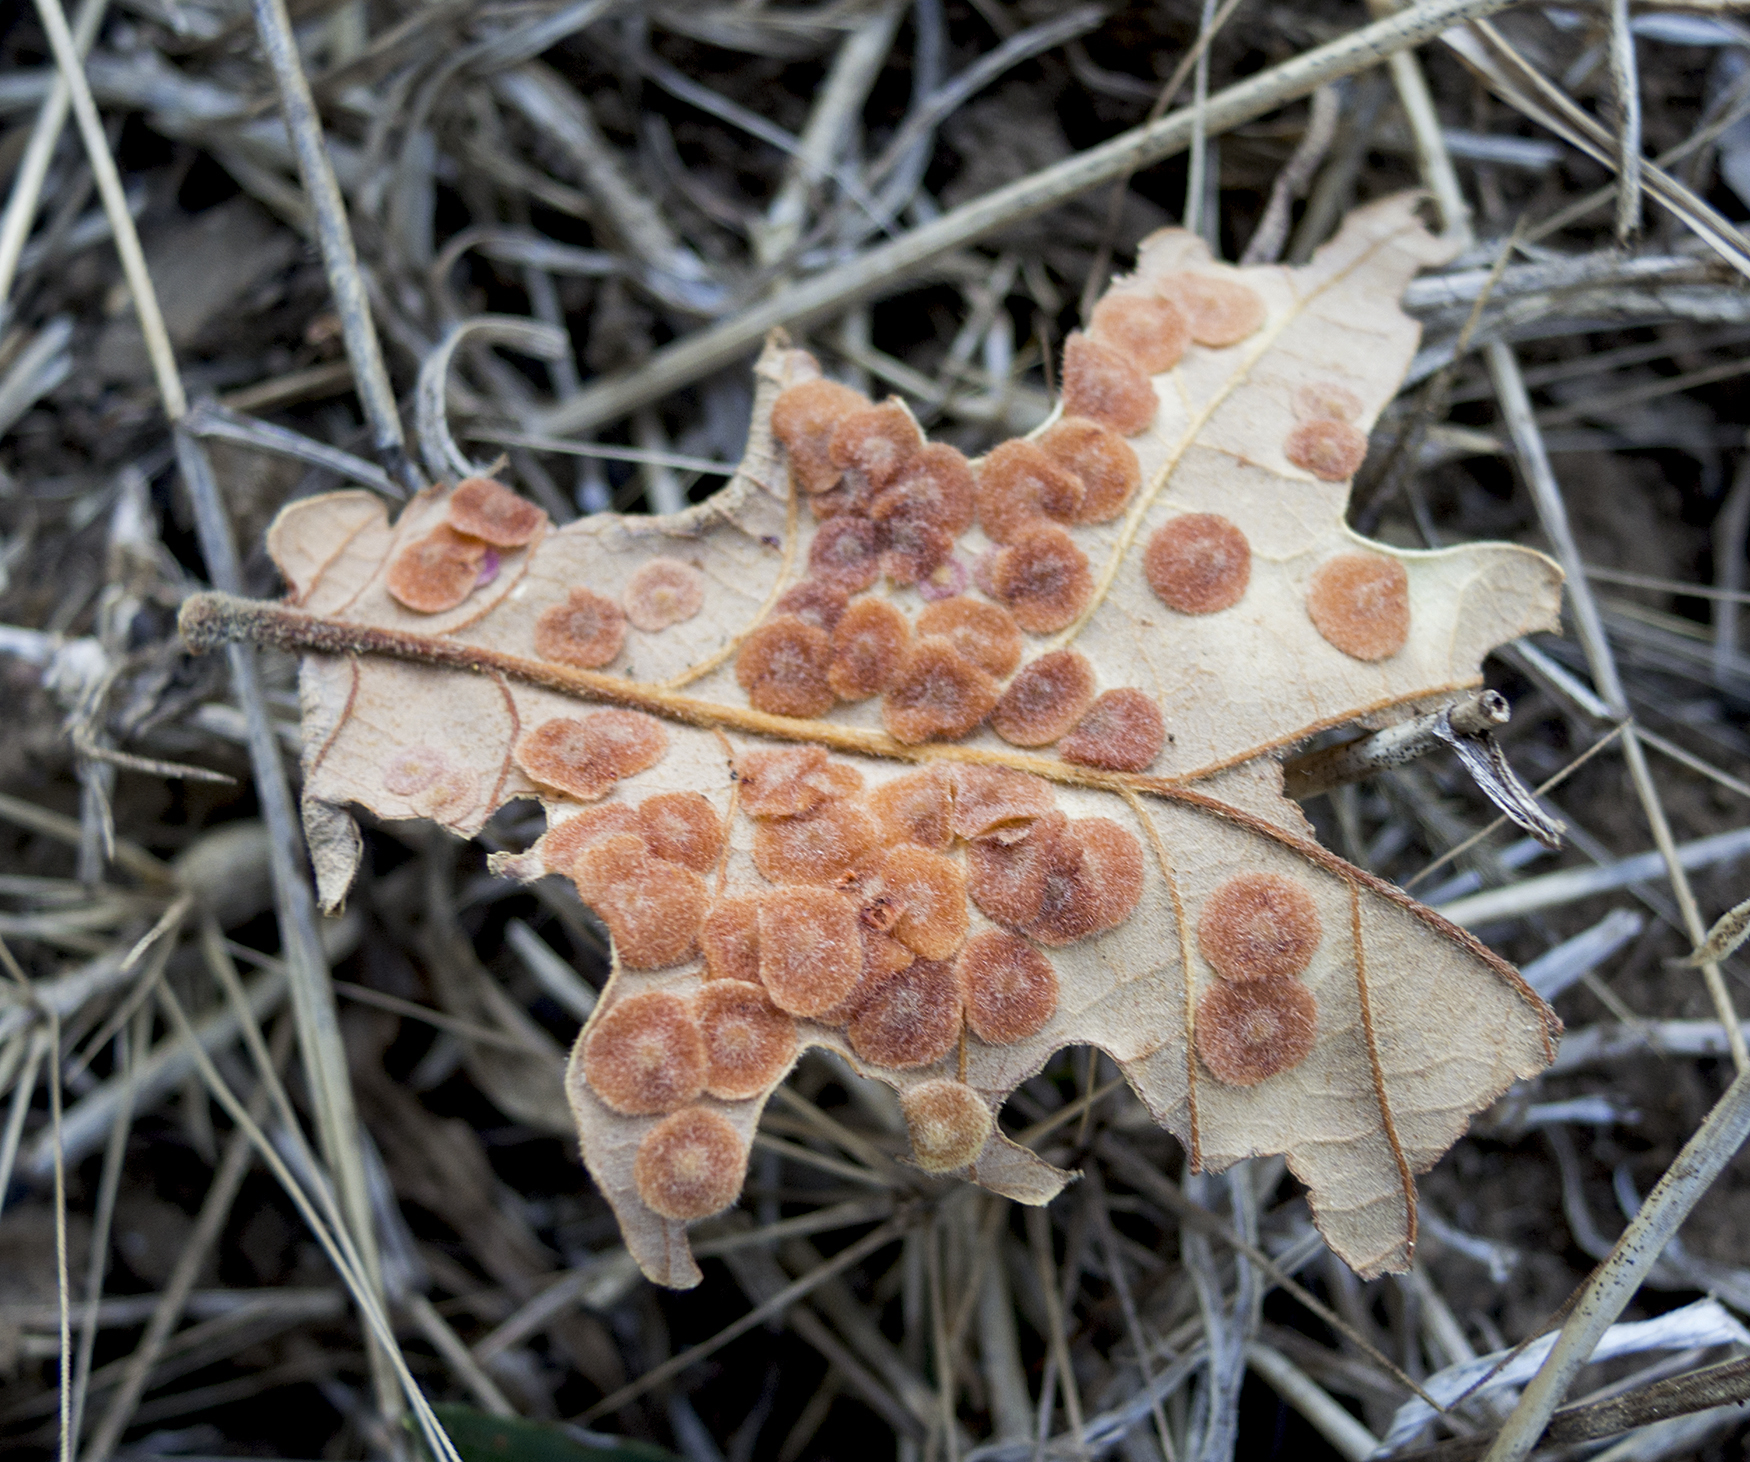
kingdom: Animalia
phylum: Arthropoda
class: Insecta
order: Hymenoptera
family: Cynipidae
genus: Neuroterus
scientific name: Neuroterus quercusbaccarum
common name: Common spangle gall
